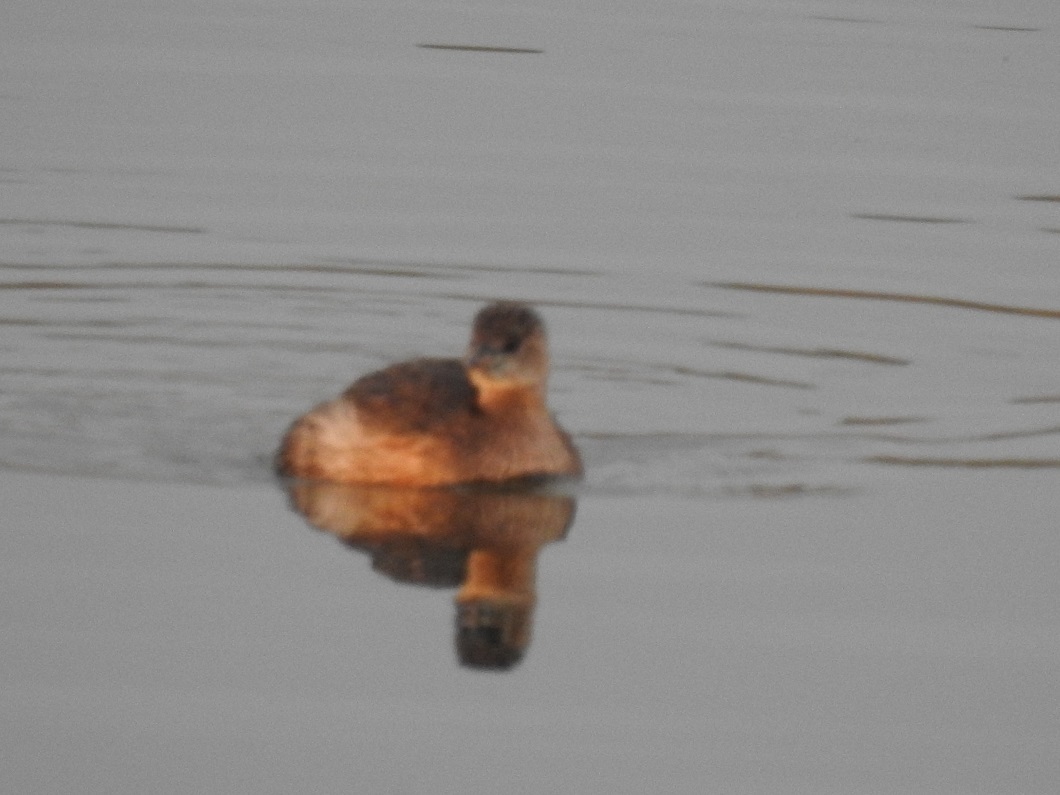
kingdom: Animalia
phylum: Chordata
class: Aves
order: Podicipediformes
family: Podicipedidae
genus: Tachybaptus
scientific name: Tachybaptus ruficollis
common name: Little grebe
